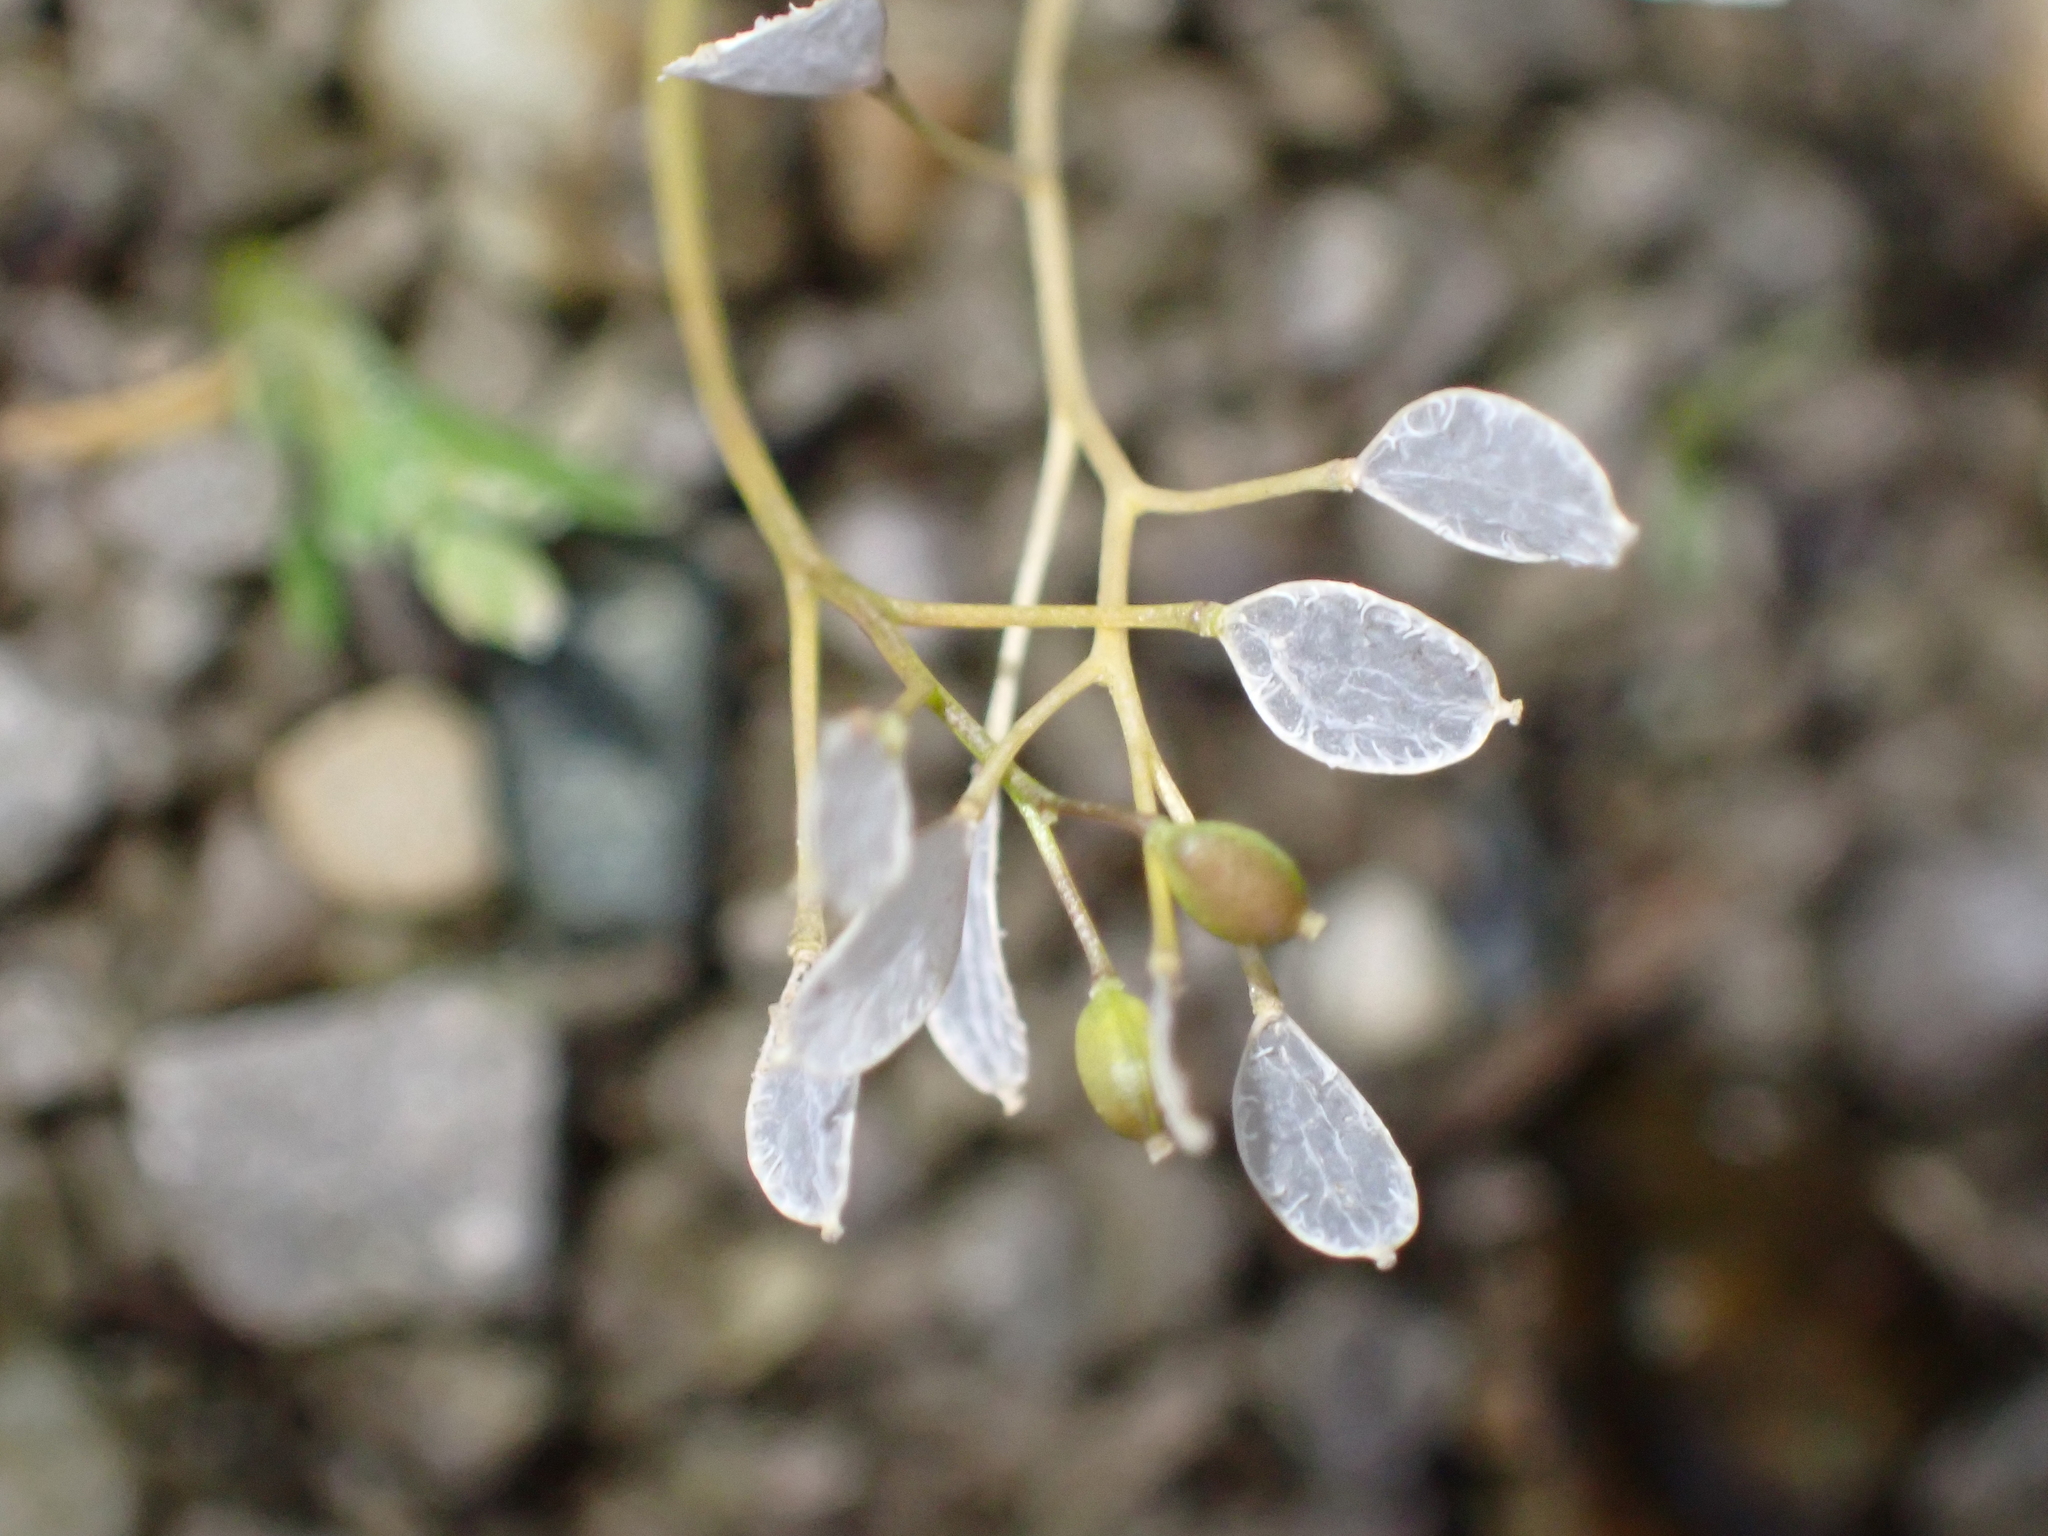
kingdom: Plantae
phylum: Tracheophyta
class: Magnoliopsida
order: Brassicales
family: Brassicaceae
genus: Draba
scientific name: Draba verna
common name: Spring draba
